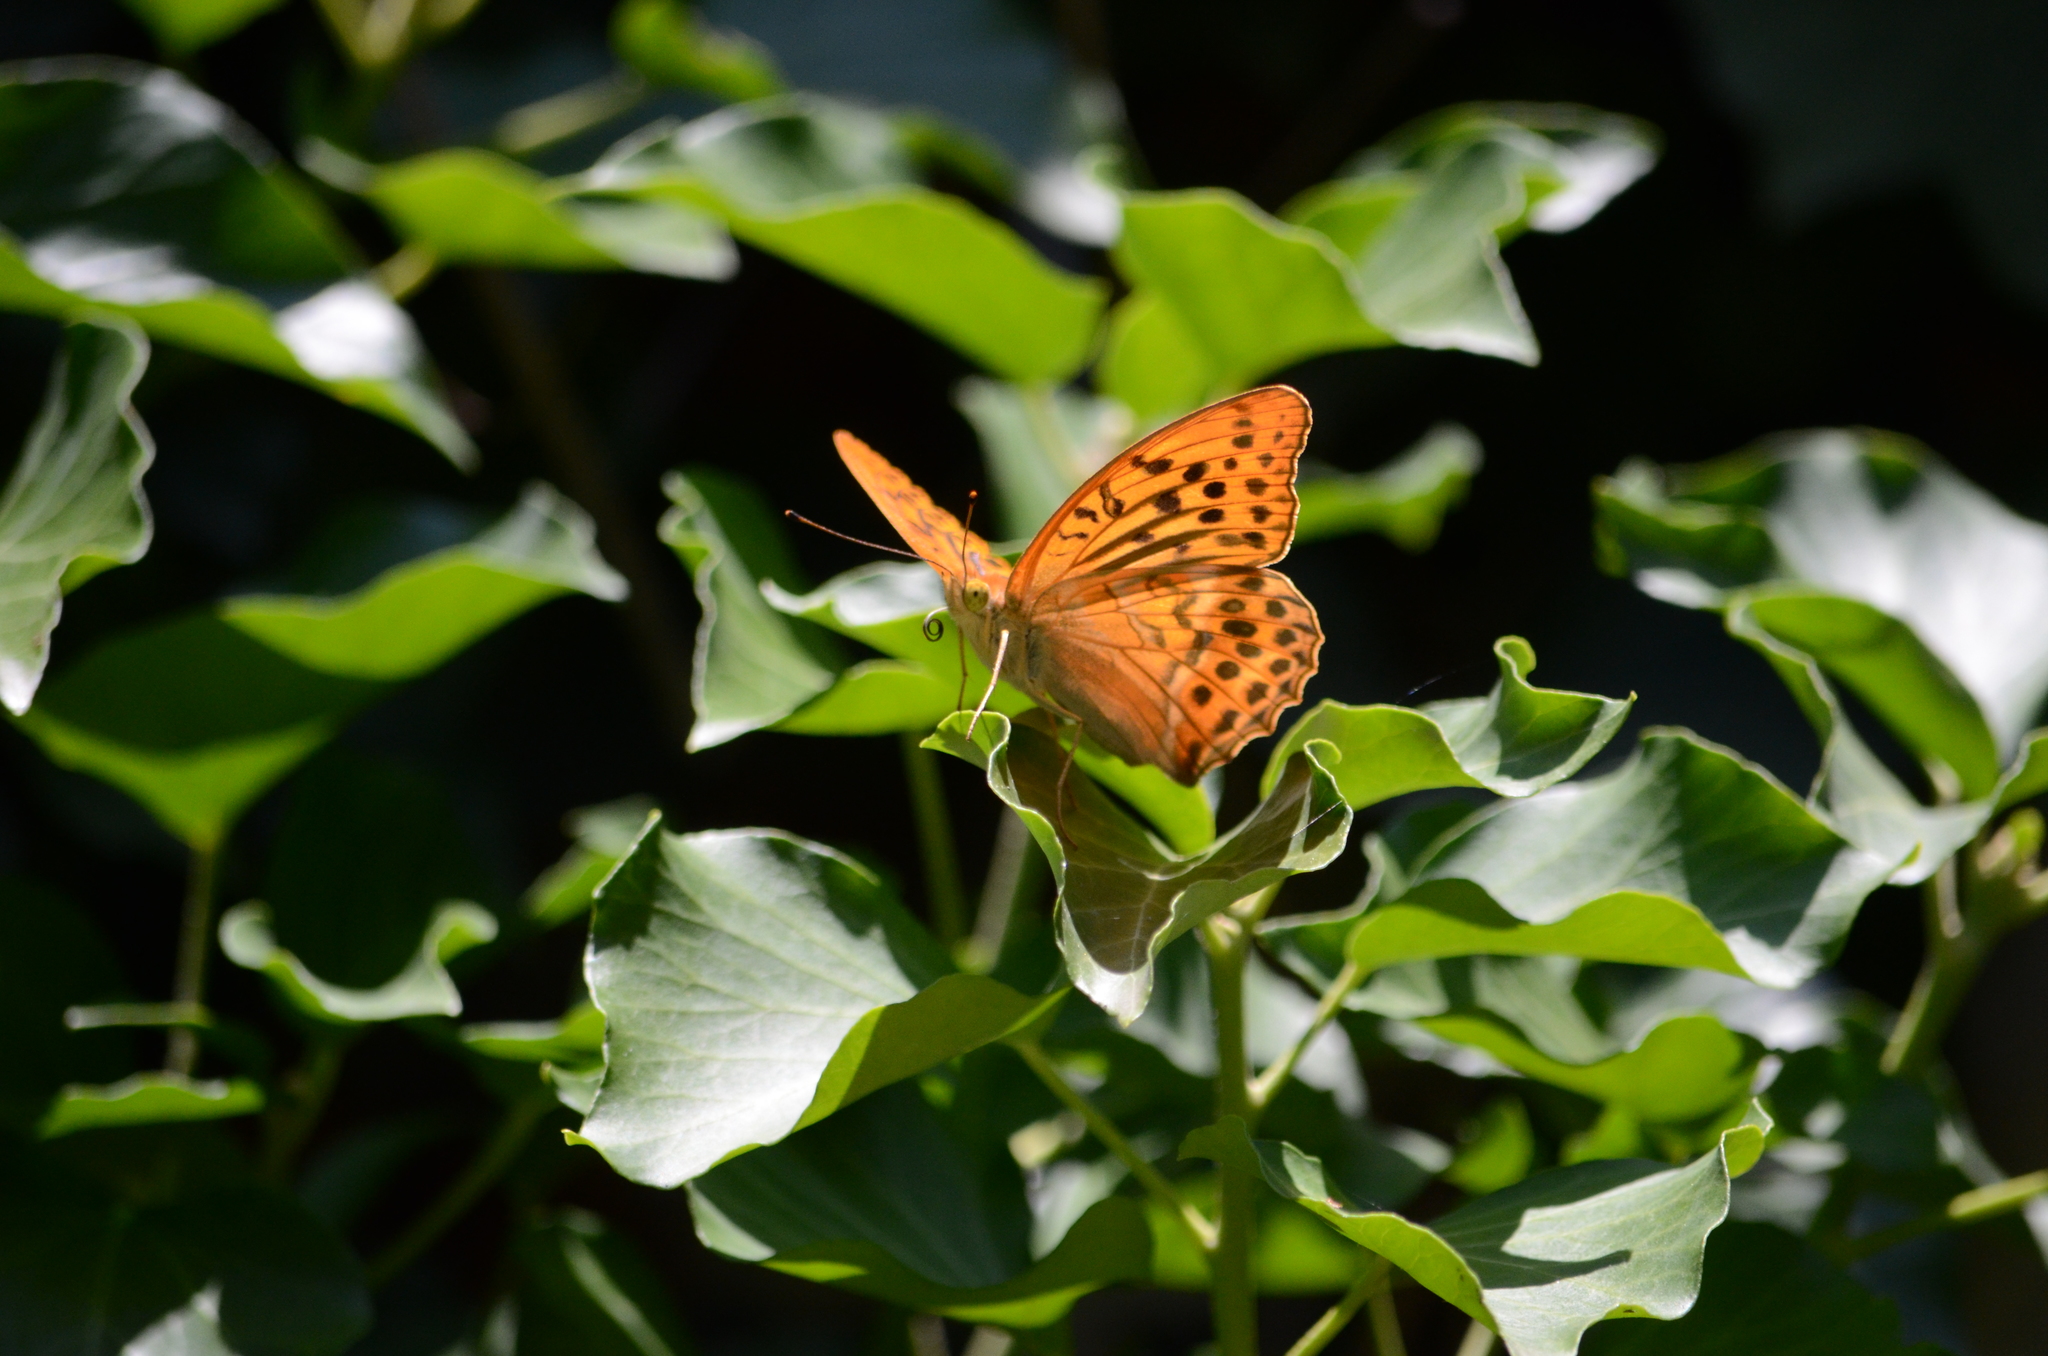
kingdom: Animalia
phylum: Arthropoda
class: Insecta
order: Lepidoptera
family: Nymphalidae
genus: Argynnis
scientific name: Argynnis paphia
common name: Silver-washed fritillary
